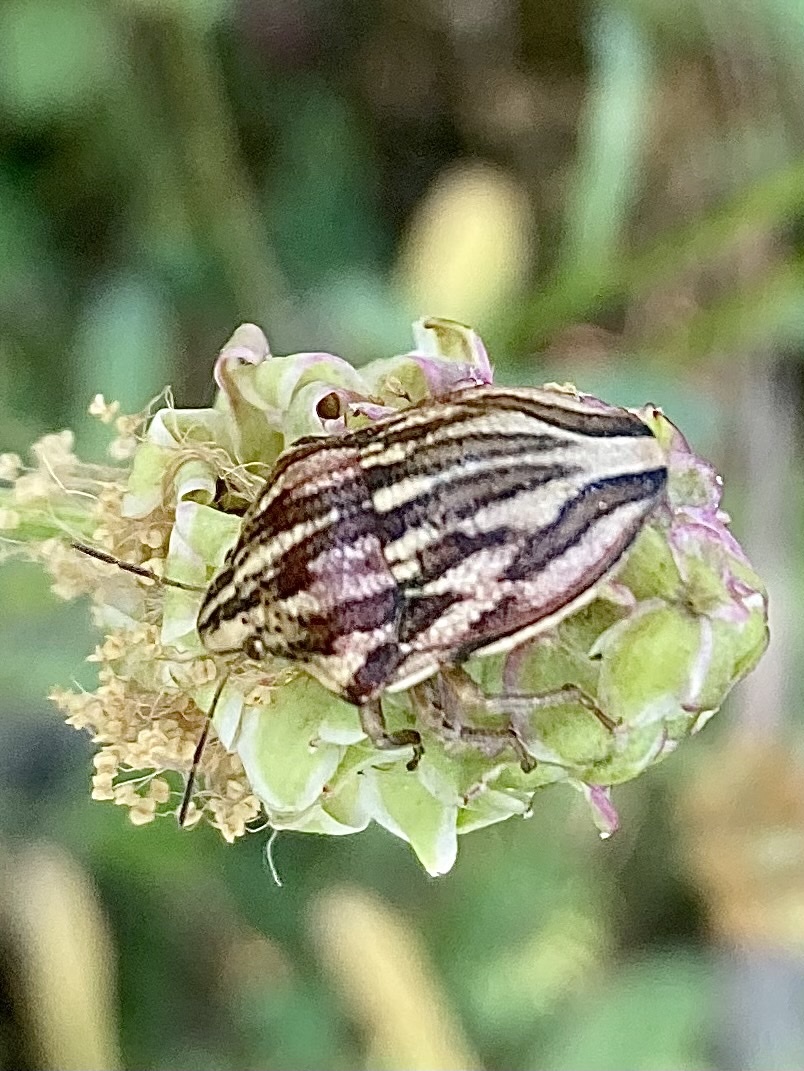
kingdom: Animalia
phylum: Arthropoda
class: Insecta
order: Hemiptera
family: Scutelleridae
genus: Odontotarsus
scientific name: Odontotarsus purpureolineatus
